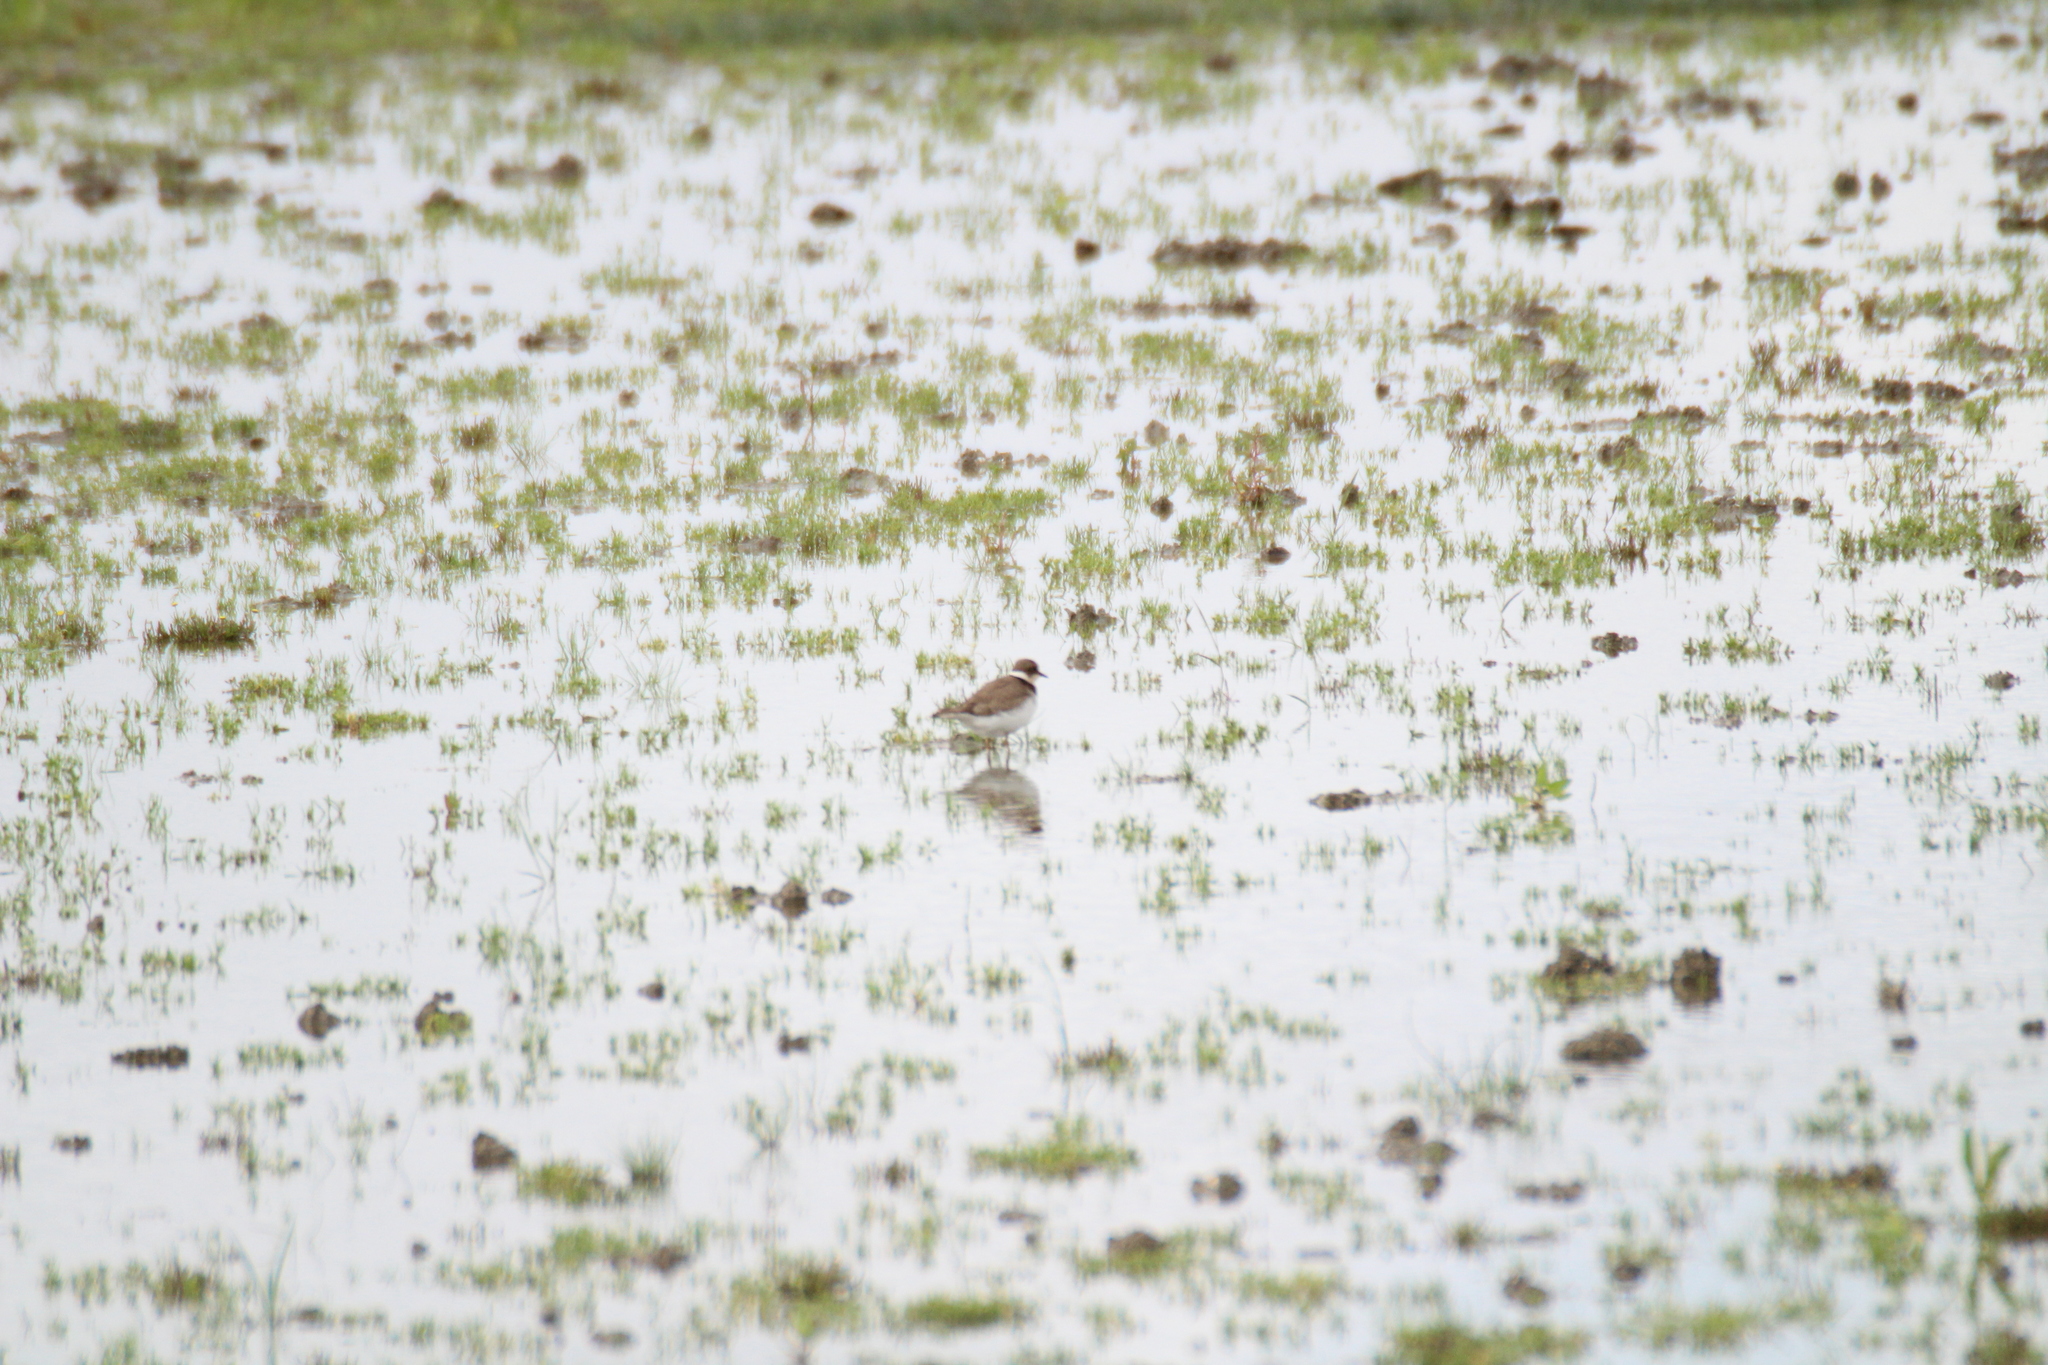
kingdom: Animalia
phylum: Chordata
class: Aves
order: Charadriiformes
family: Charadriidae
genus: Charadrius
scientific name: Charadrius hiaticula
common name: Common ringed plover
